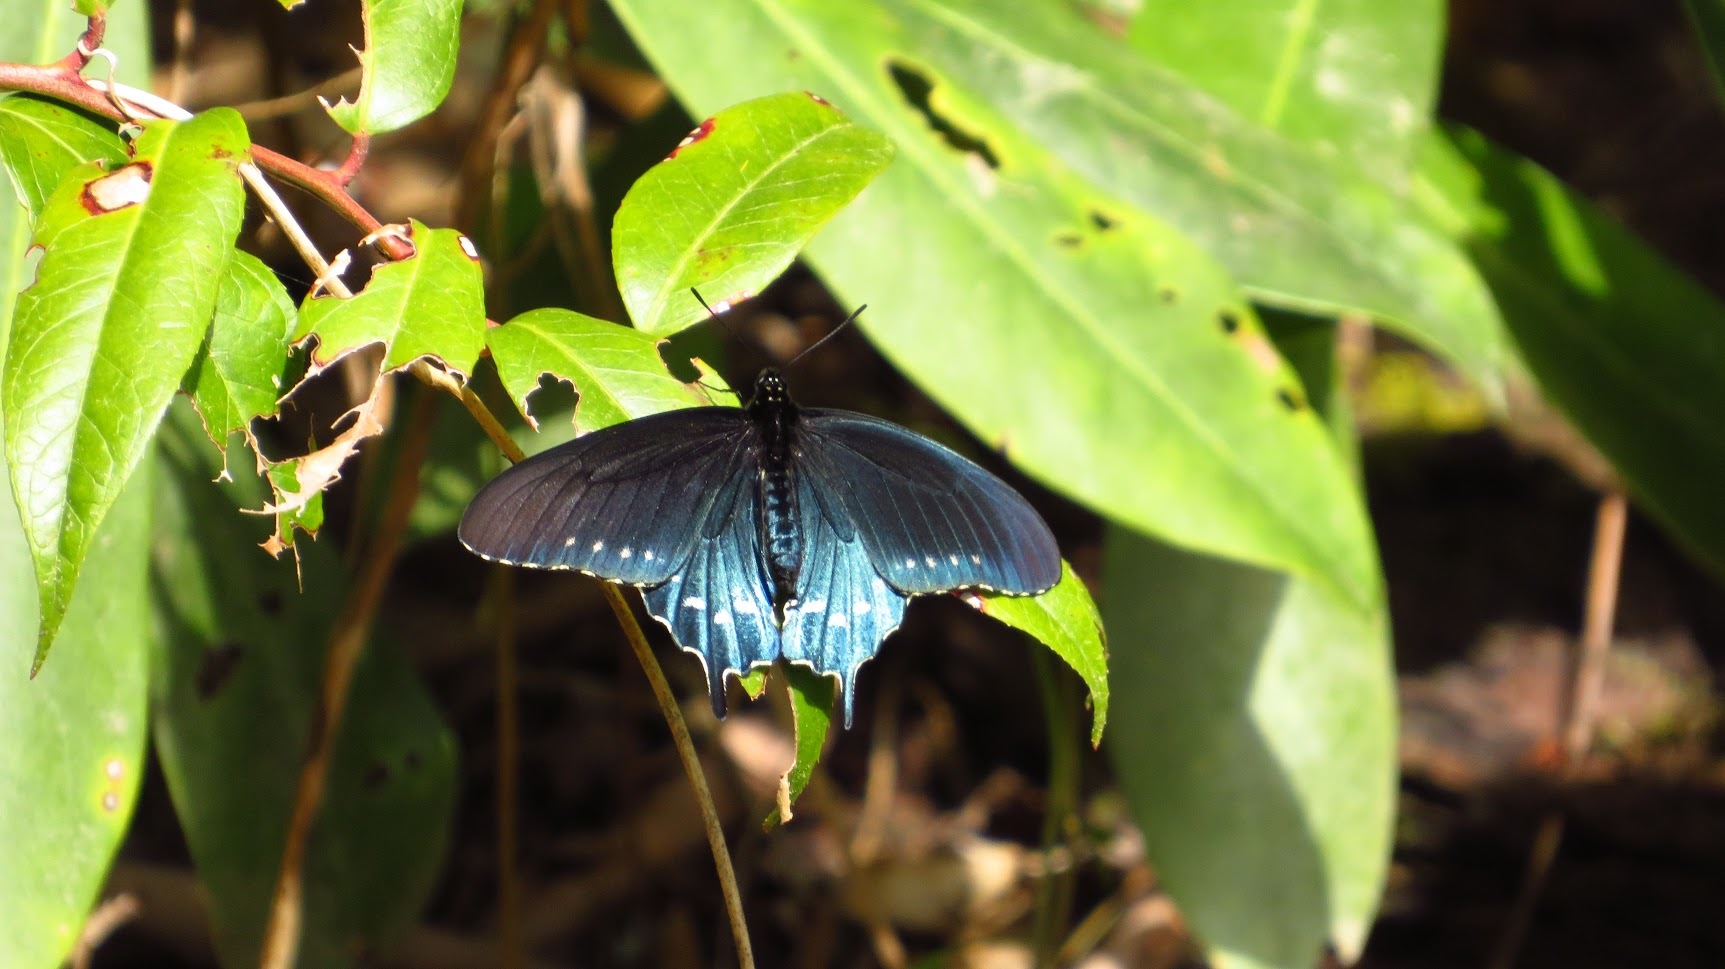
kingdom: Animalia
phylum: Arthropoda
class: Insecta
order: Lepidoptera
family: Papilionidae
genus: Battus
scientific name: Battus philenor
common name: Pipevine swallowtail
